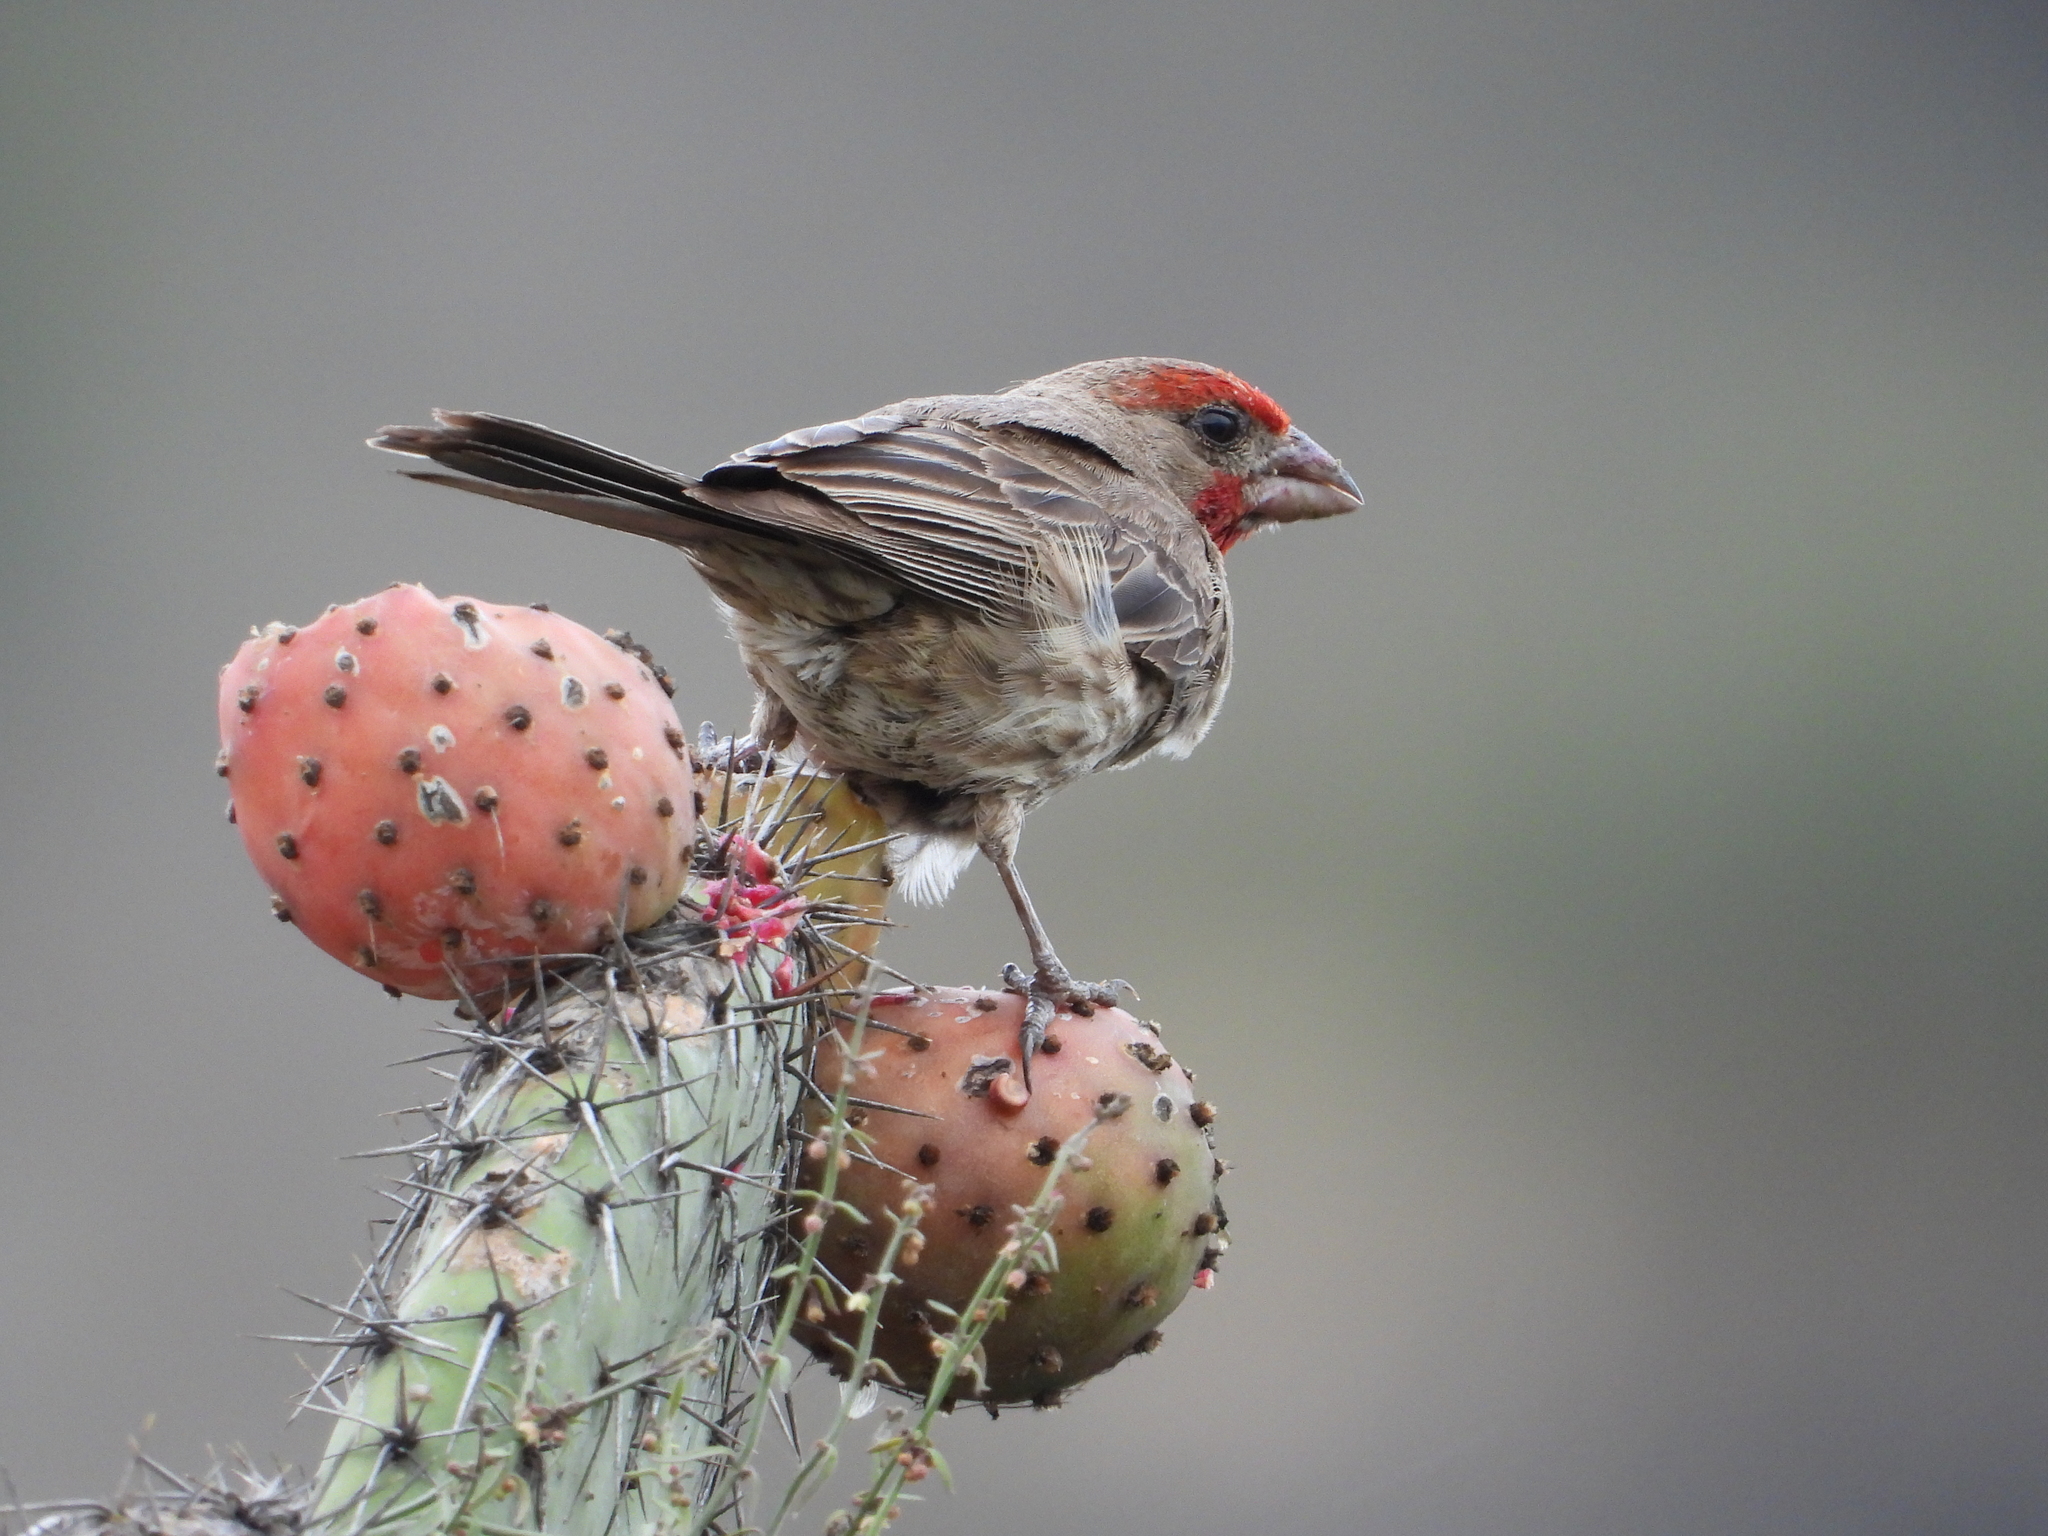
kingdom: Animalia
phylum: Chordata
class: Aves
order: Passeriformes
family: Fringillidae
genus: Haemorhous
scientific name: Haemorhous mexicanus
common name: House finch
